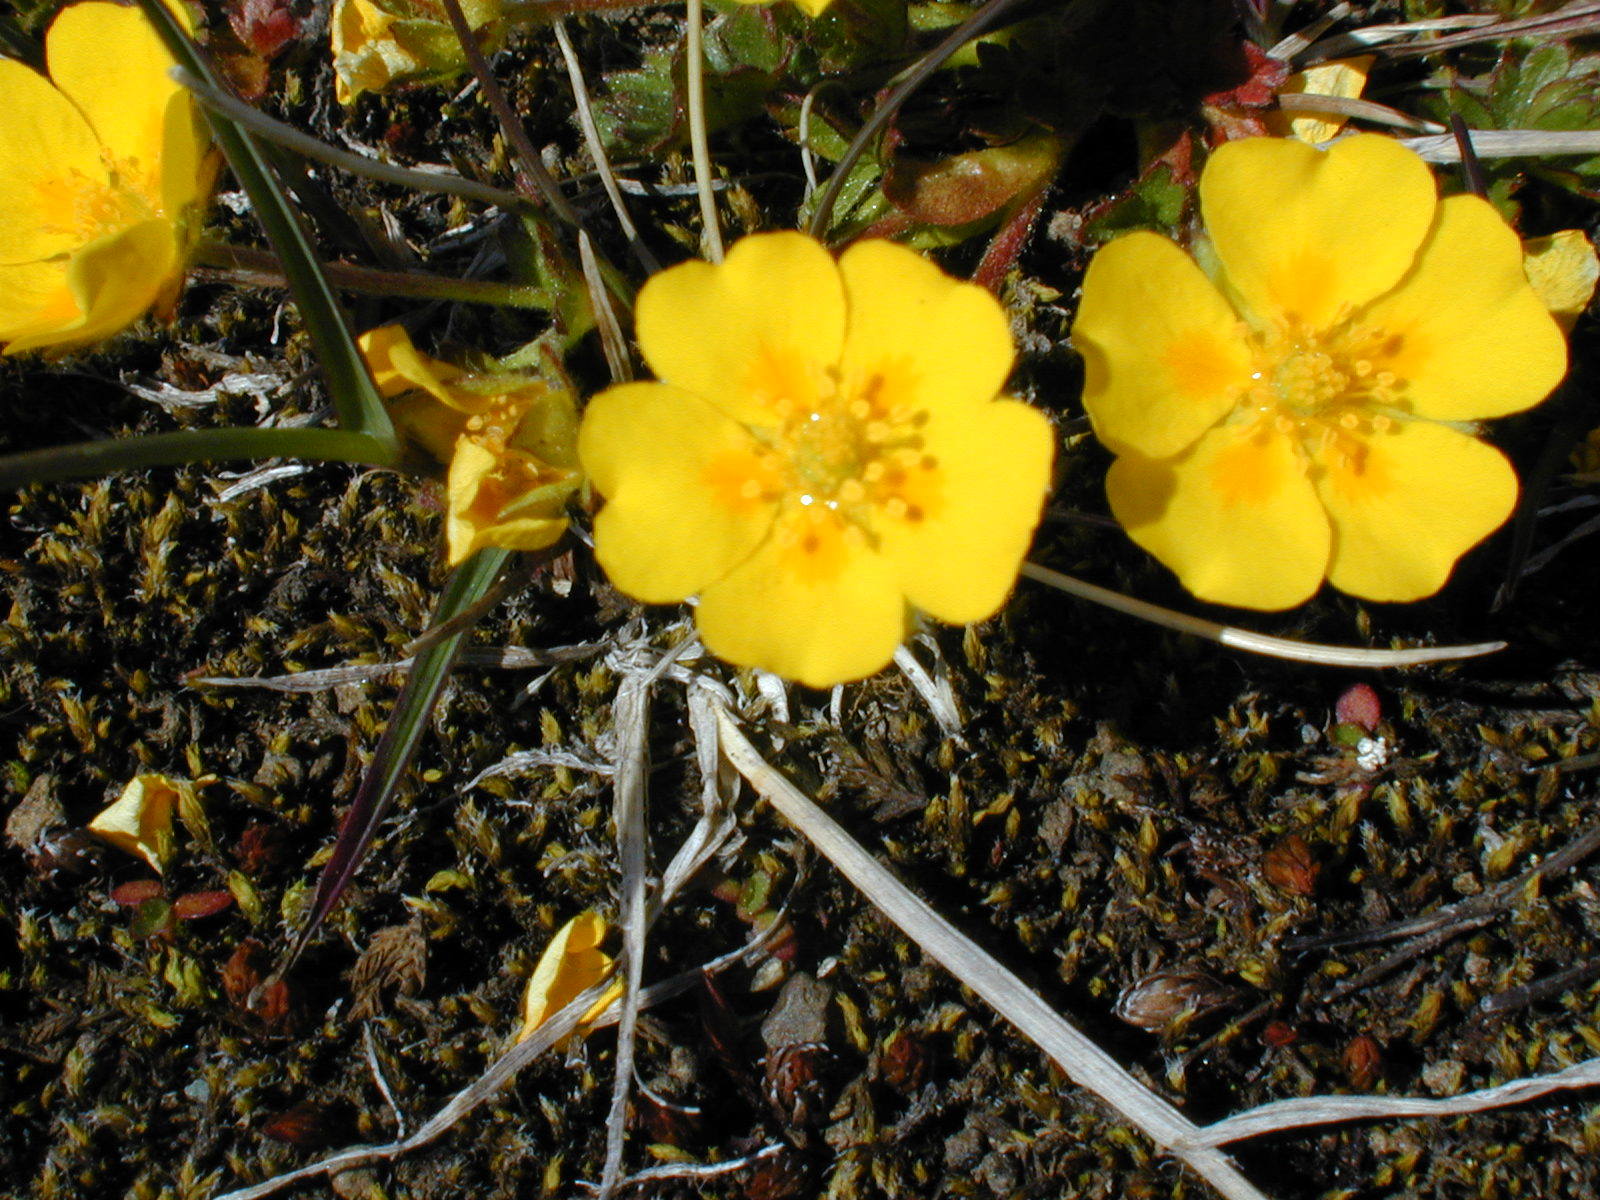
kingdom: Plantae
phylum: Tracheophyta
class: Magnoliopsida
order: Rosales
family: Rosaceae
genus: Potentilla
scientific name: Potentilla crantzii
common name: Alpine cinquefoil
